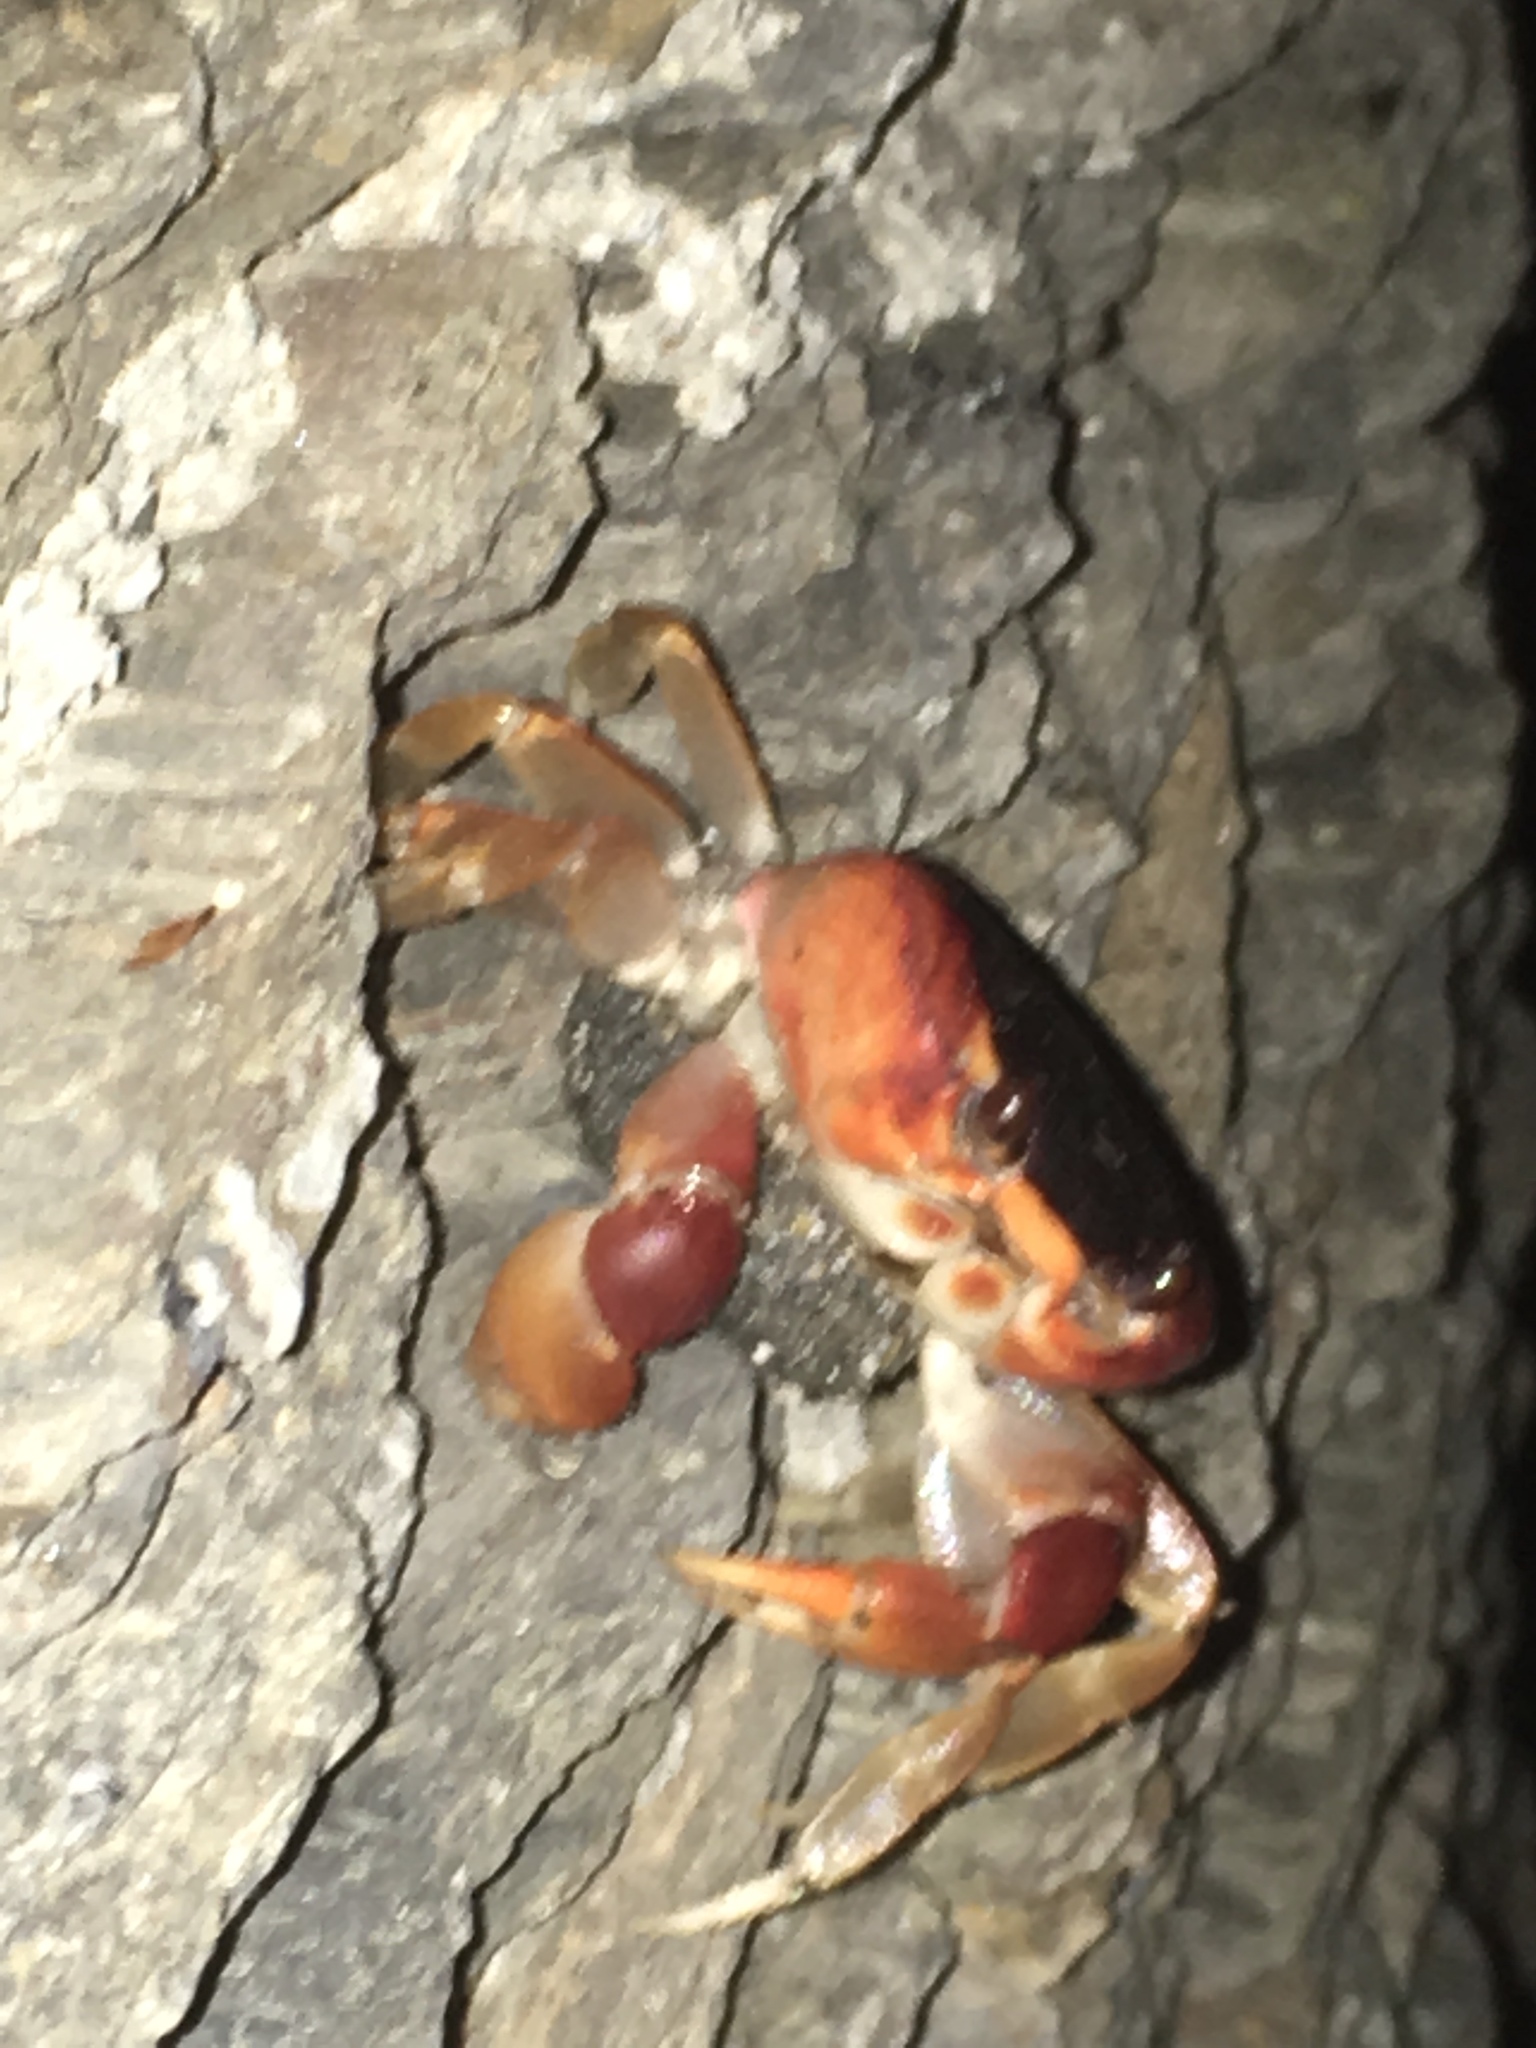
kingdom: Animalia
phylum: Arthropoda
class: Malacostraca
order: Decapoda
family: Gecarcinidae
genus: Gecarcinus
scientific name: Gecarcinus lateralis
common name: Bermuda land crab
